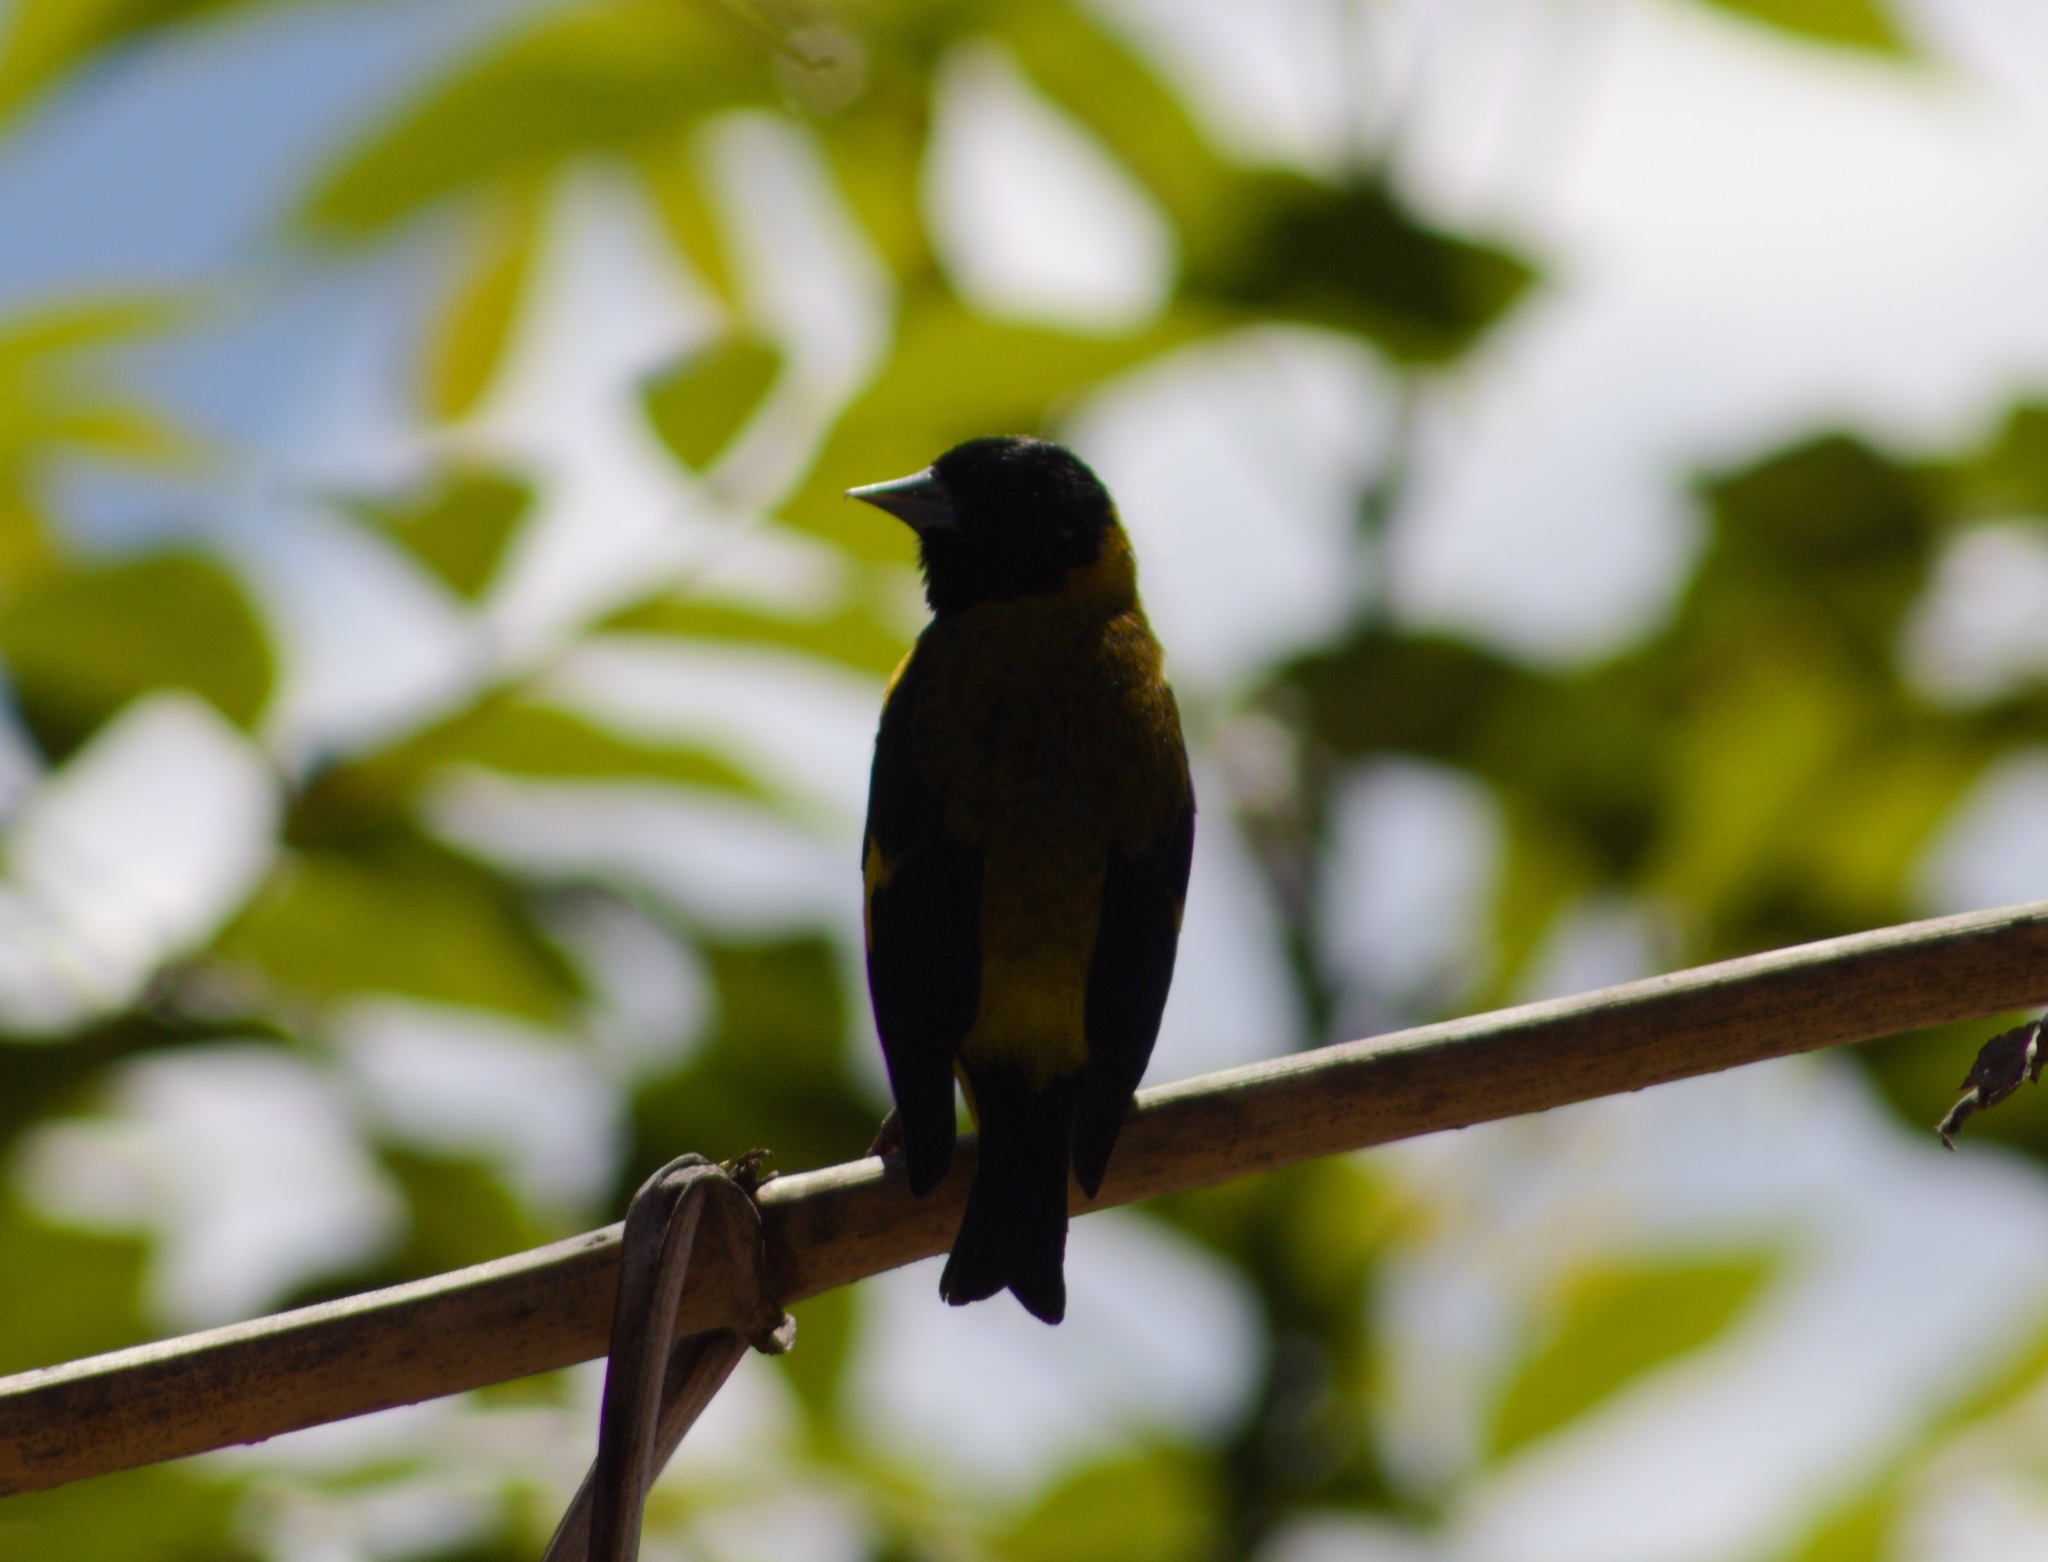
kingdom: Animalia
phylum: Chordata
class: Aves
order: Passeriformes
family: Fringillidae
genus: Spinus
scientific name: Spinus notatus
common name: Black-headed siskin
